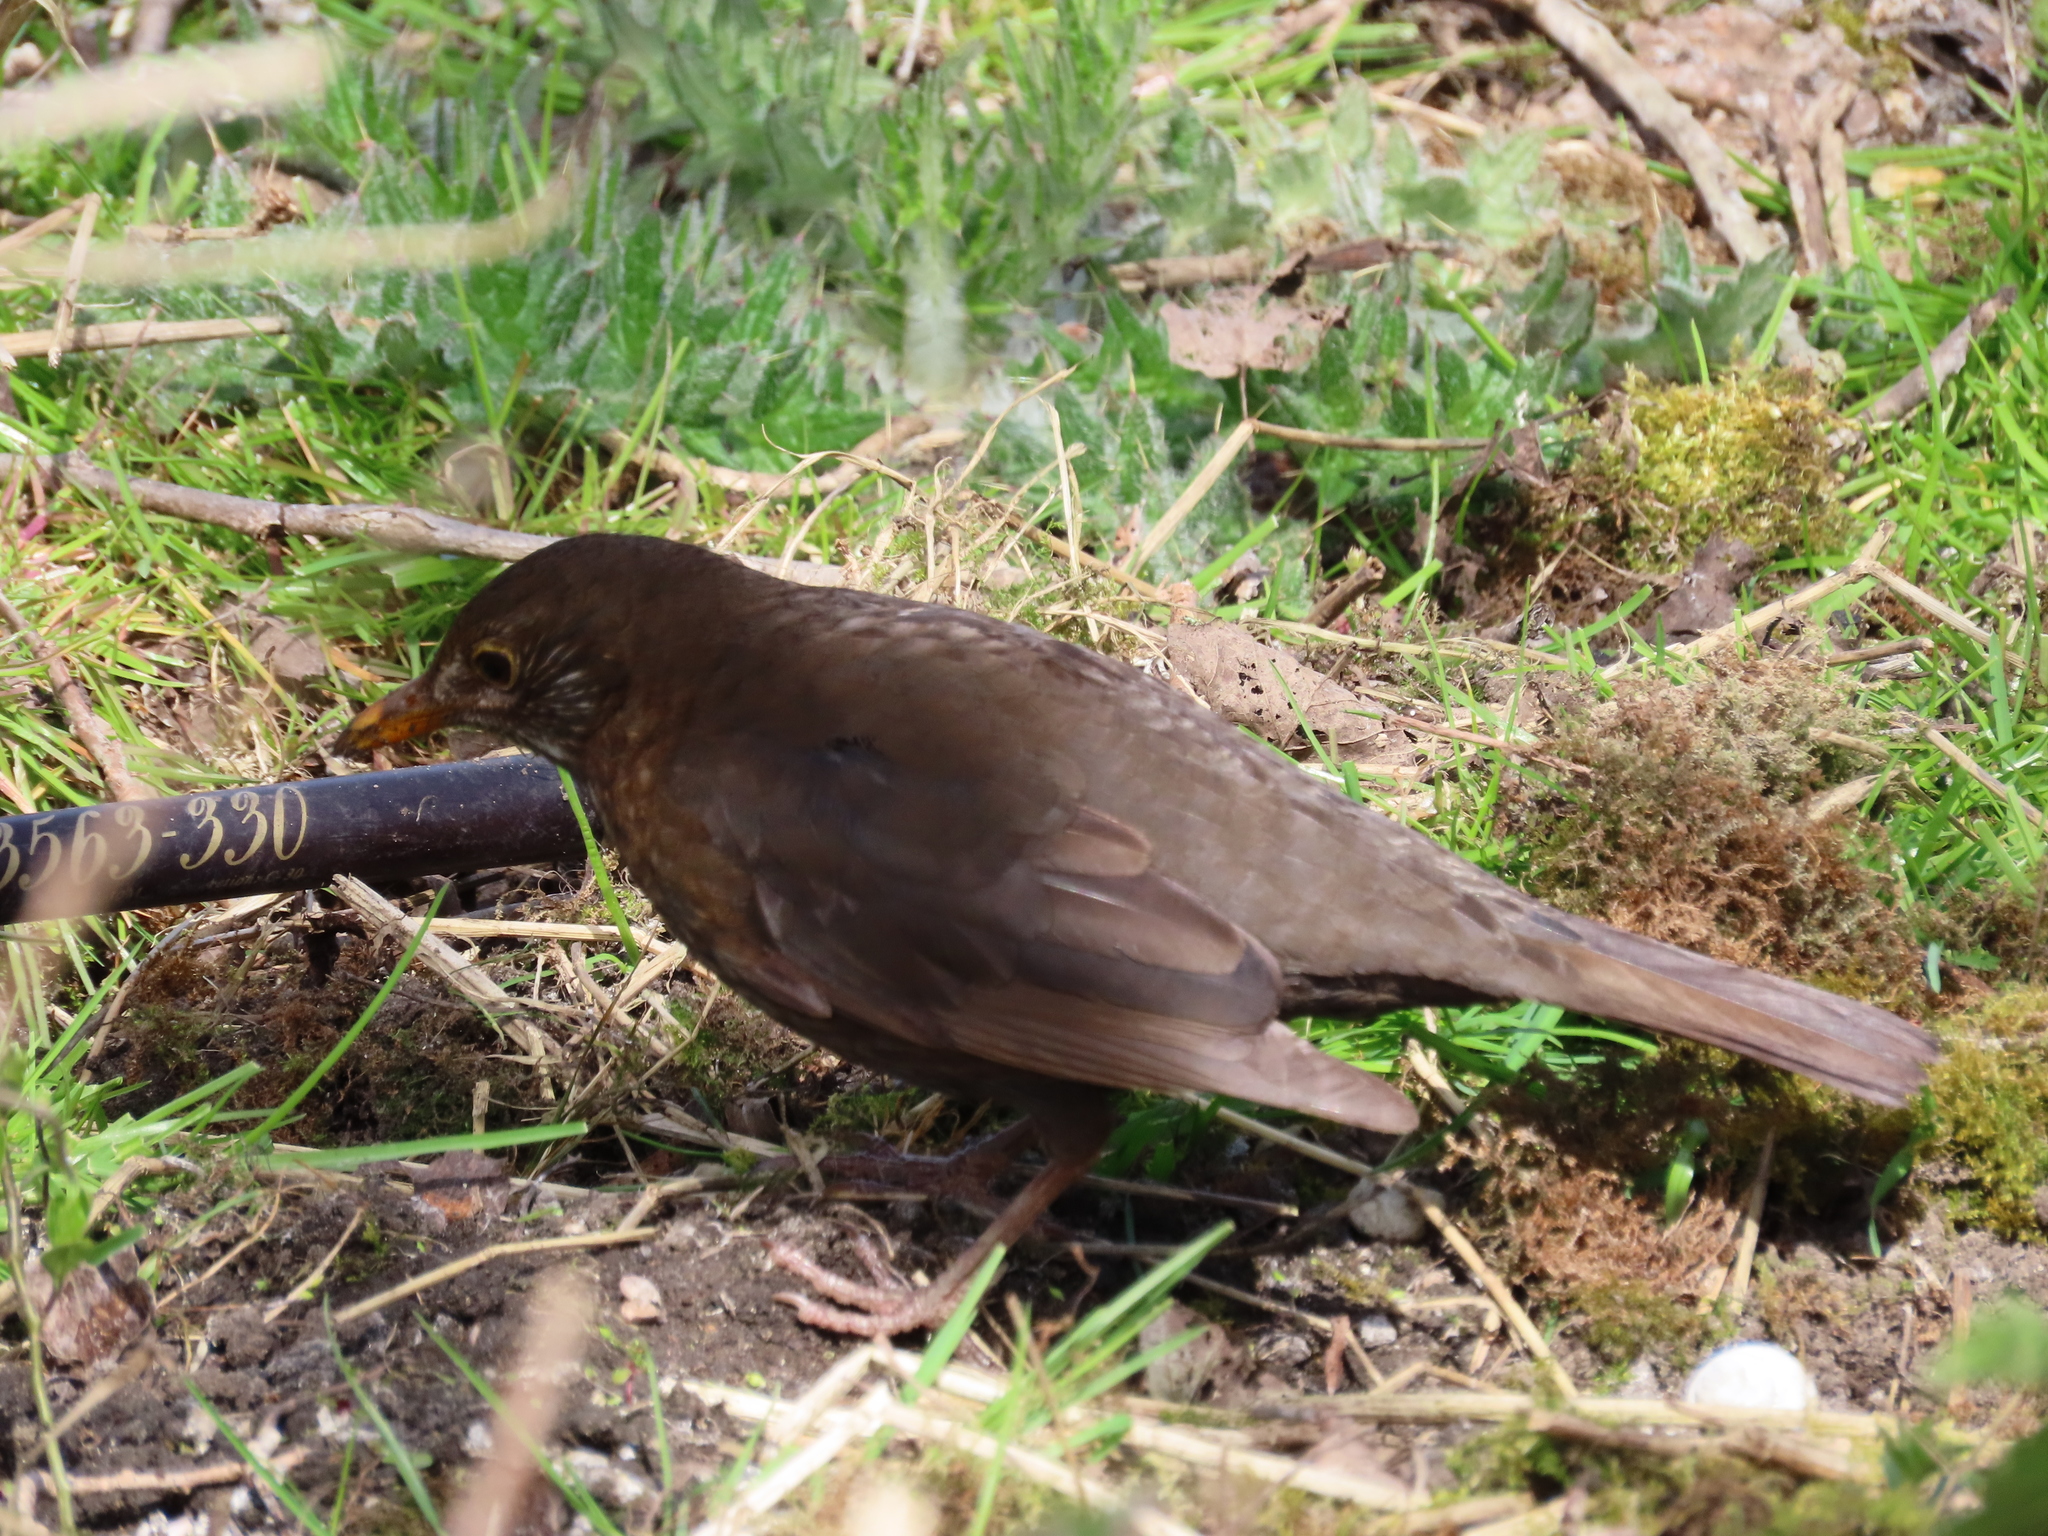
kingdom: Animalia
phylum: Chordata
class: Aves
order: Passeriformes
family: Turdidae
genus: Turdus
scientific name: Turdus merula
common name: Common blackbird
